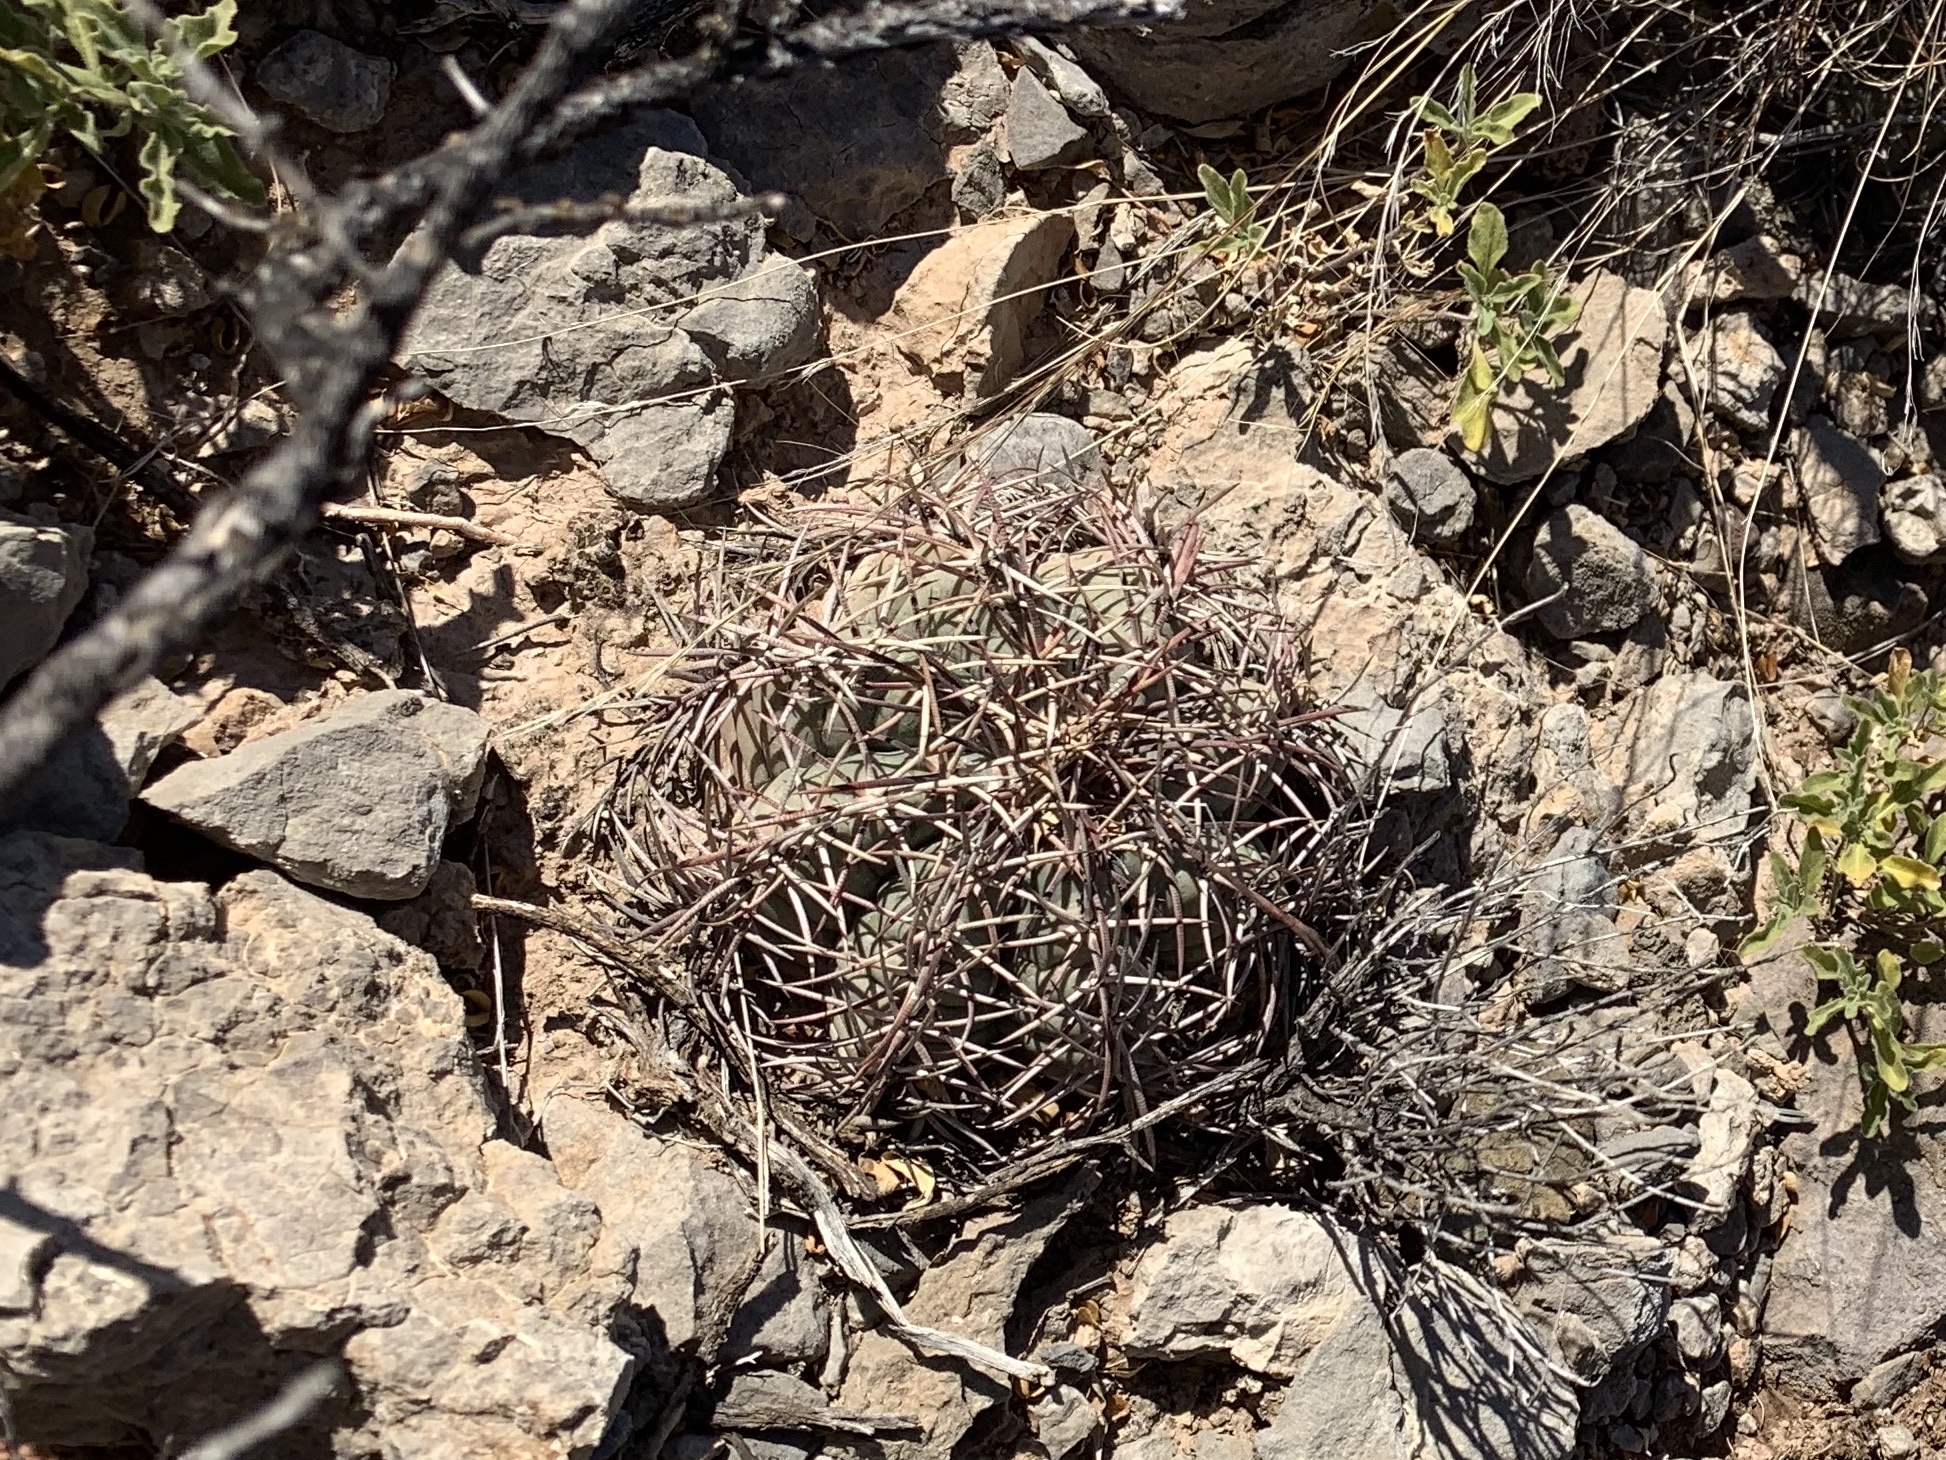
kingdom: Plantae
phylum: Tracheophyta
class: Magnoliopsida
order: Caryophyllales
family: Cactaceae
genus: Echinocactus
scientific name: Echinocactus horizonthalonius
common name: Devilshead
